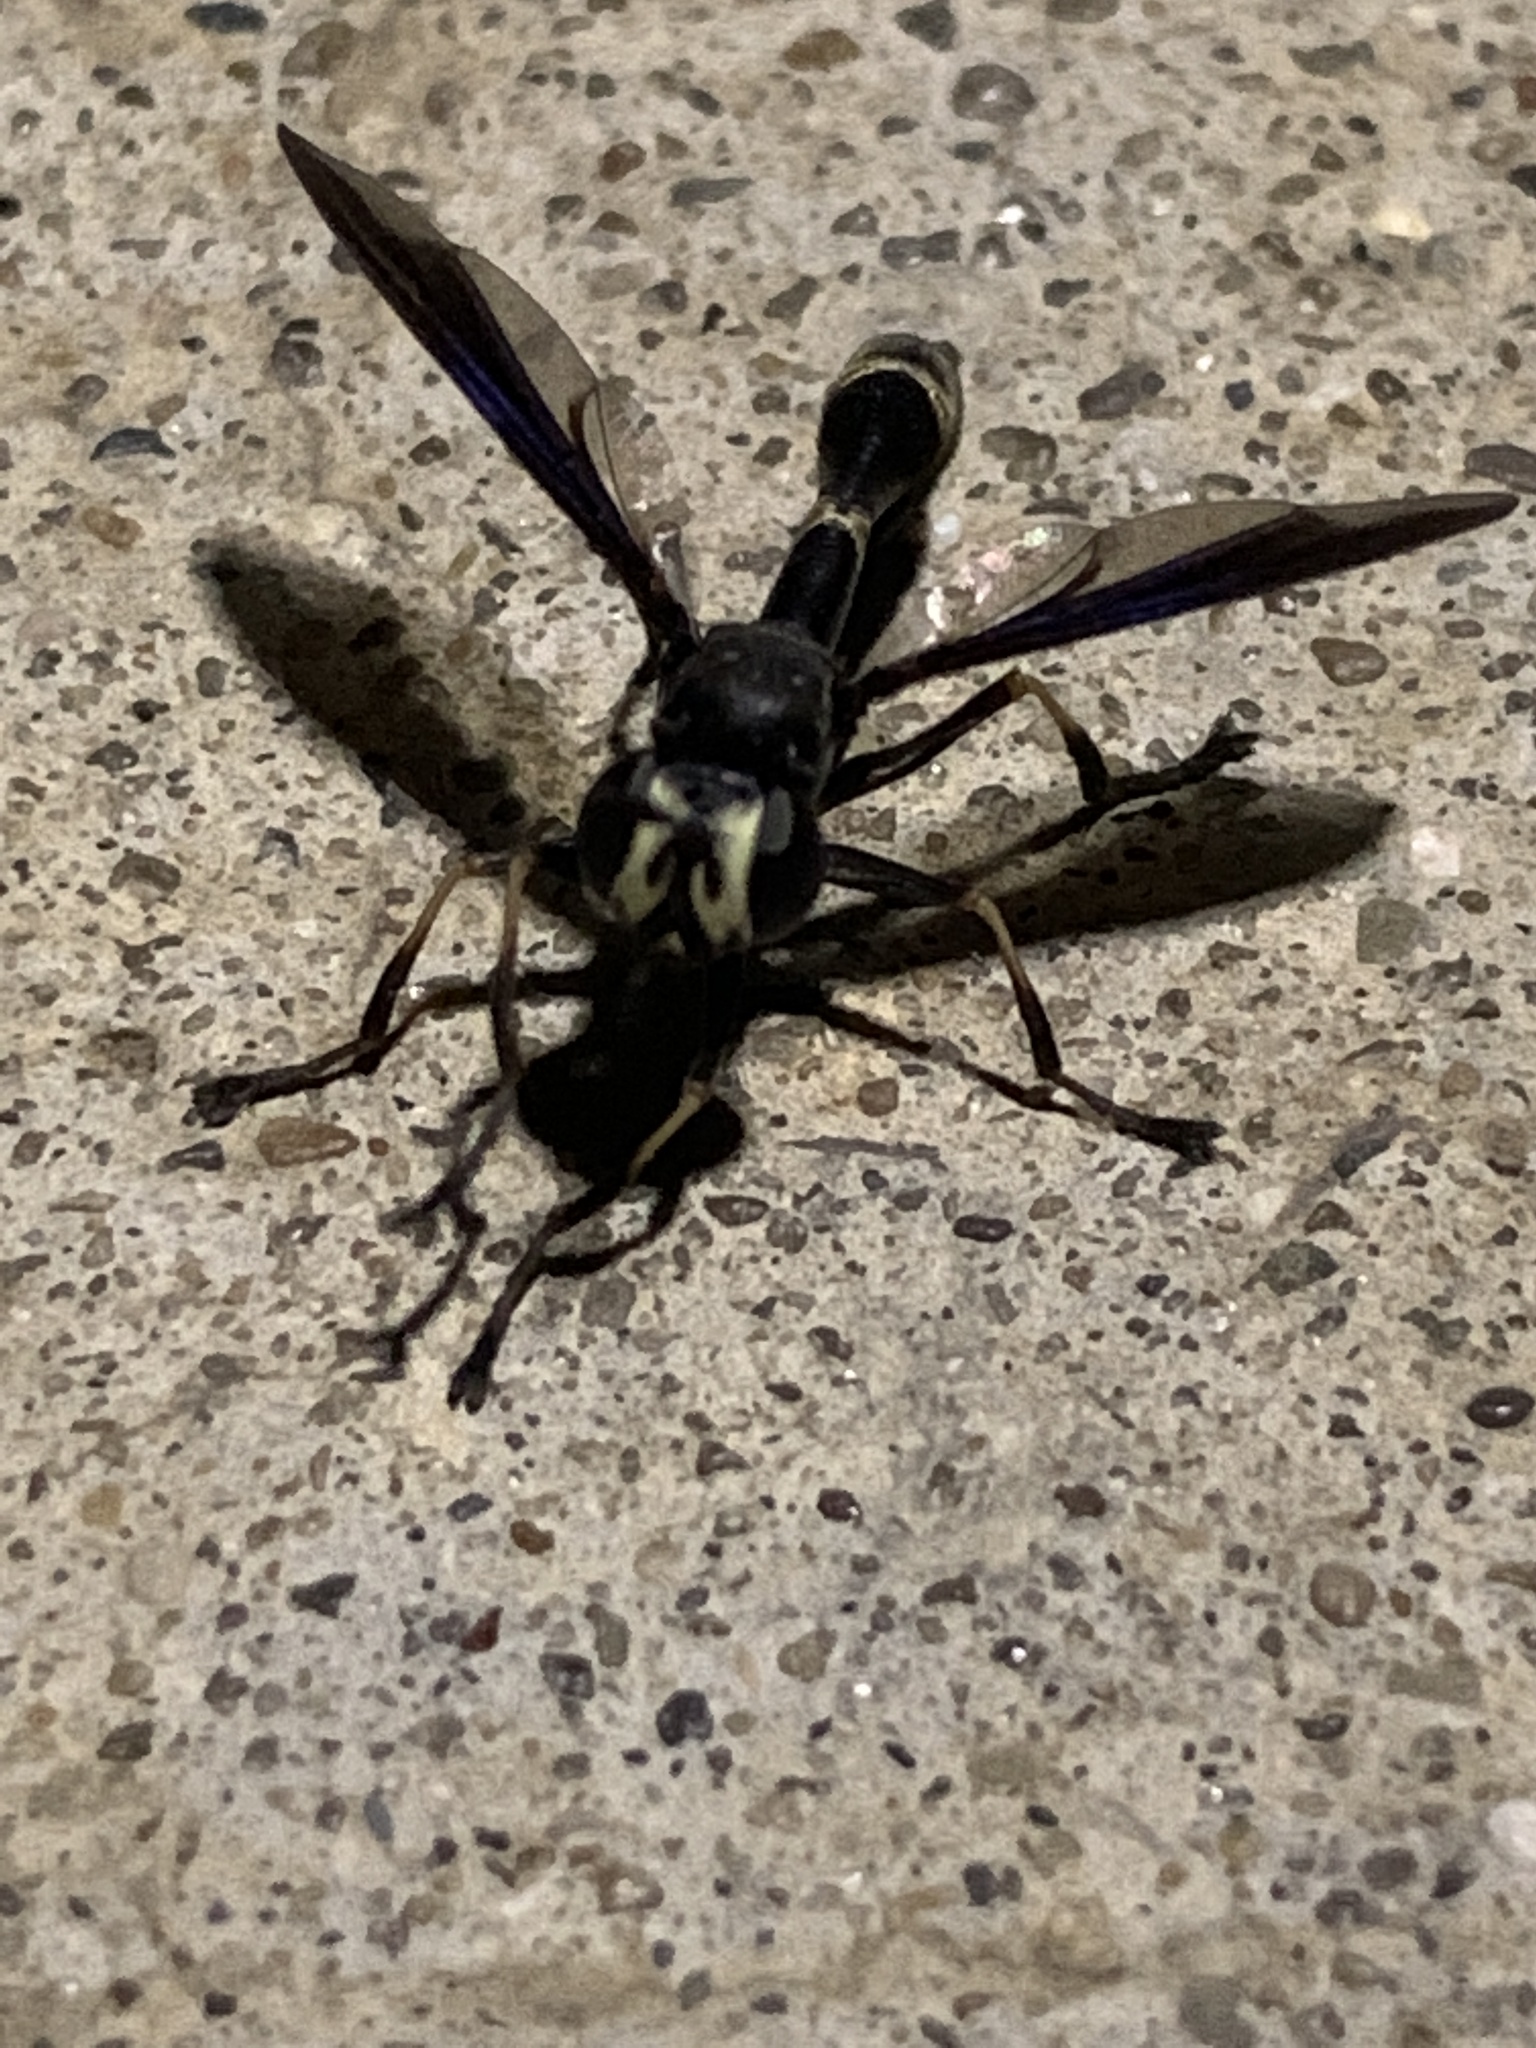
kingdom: Animalia
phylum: Arthropoda
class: Insecta
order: Diptera
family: Conopidae
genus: Physocephala
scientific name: Physocephala tibialis
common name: Common eastern physocephala
